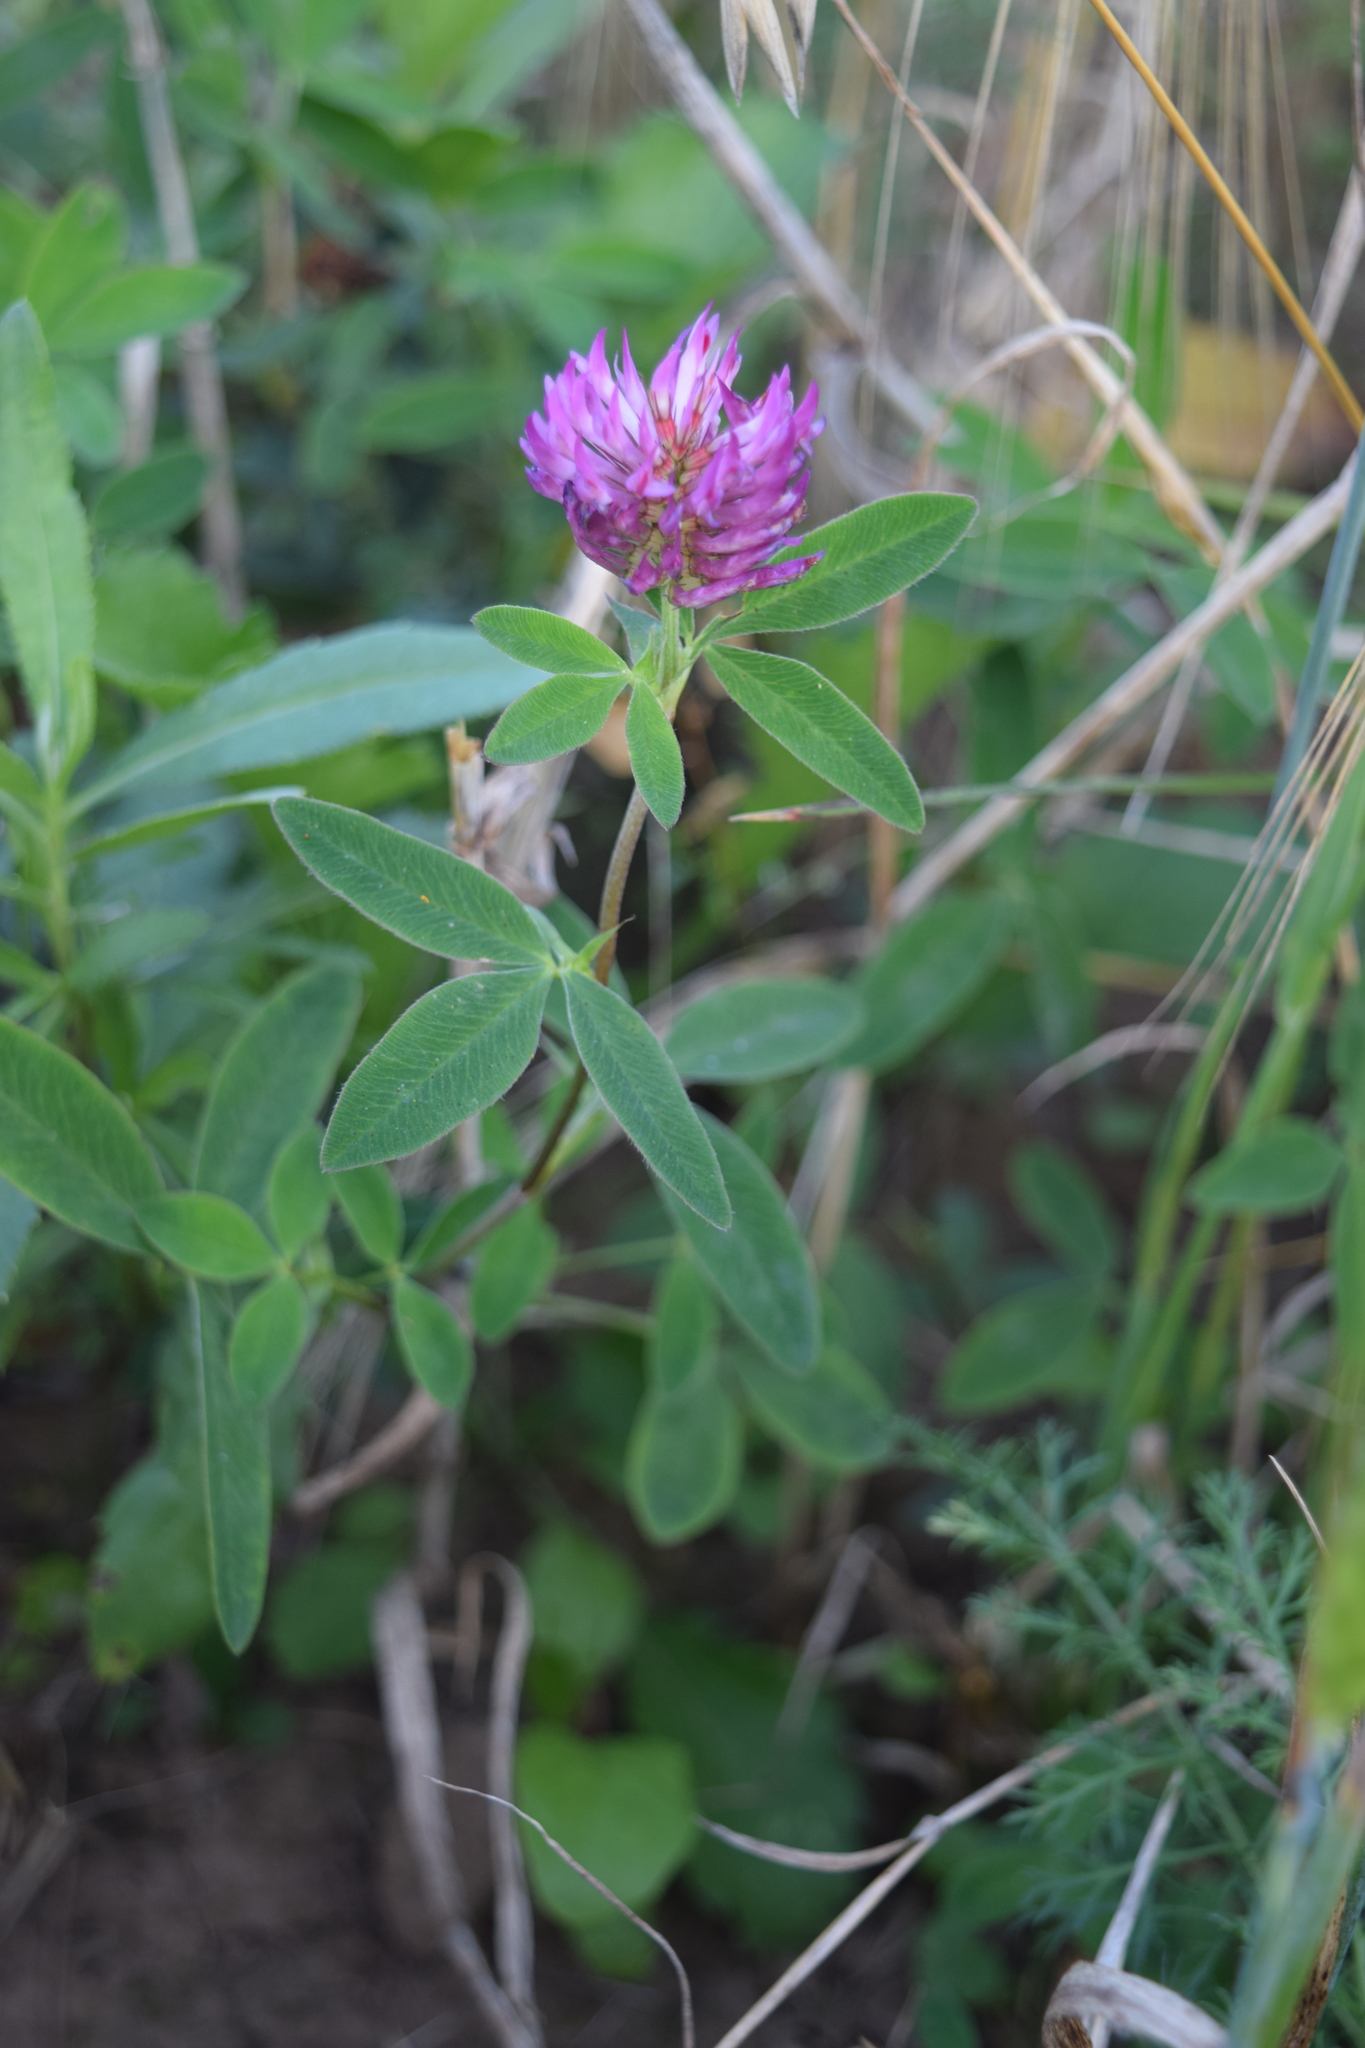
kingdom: Plantae
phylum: Tracheophyta
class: Magnoliopsida
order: Fabales
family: Fabaceae
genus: Trifolium
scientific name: Trifolium medium
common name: Zigzag clover
